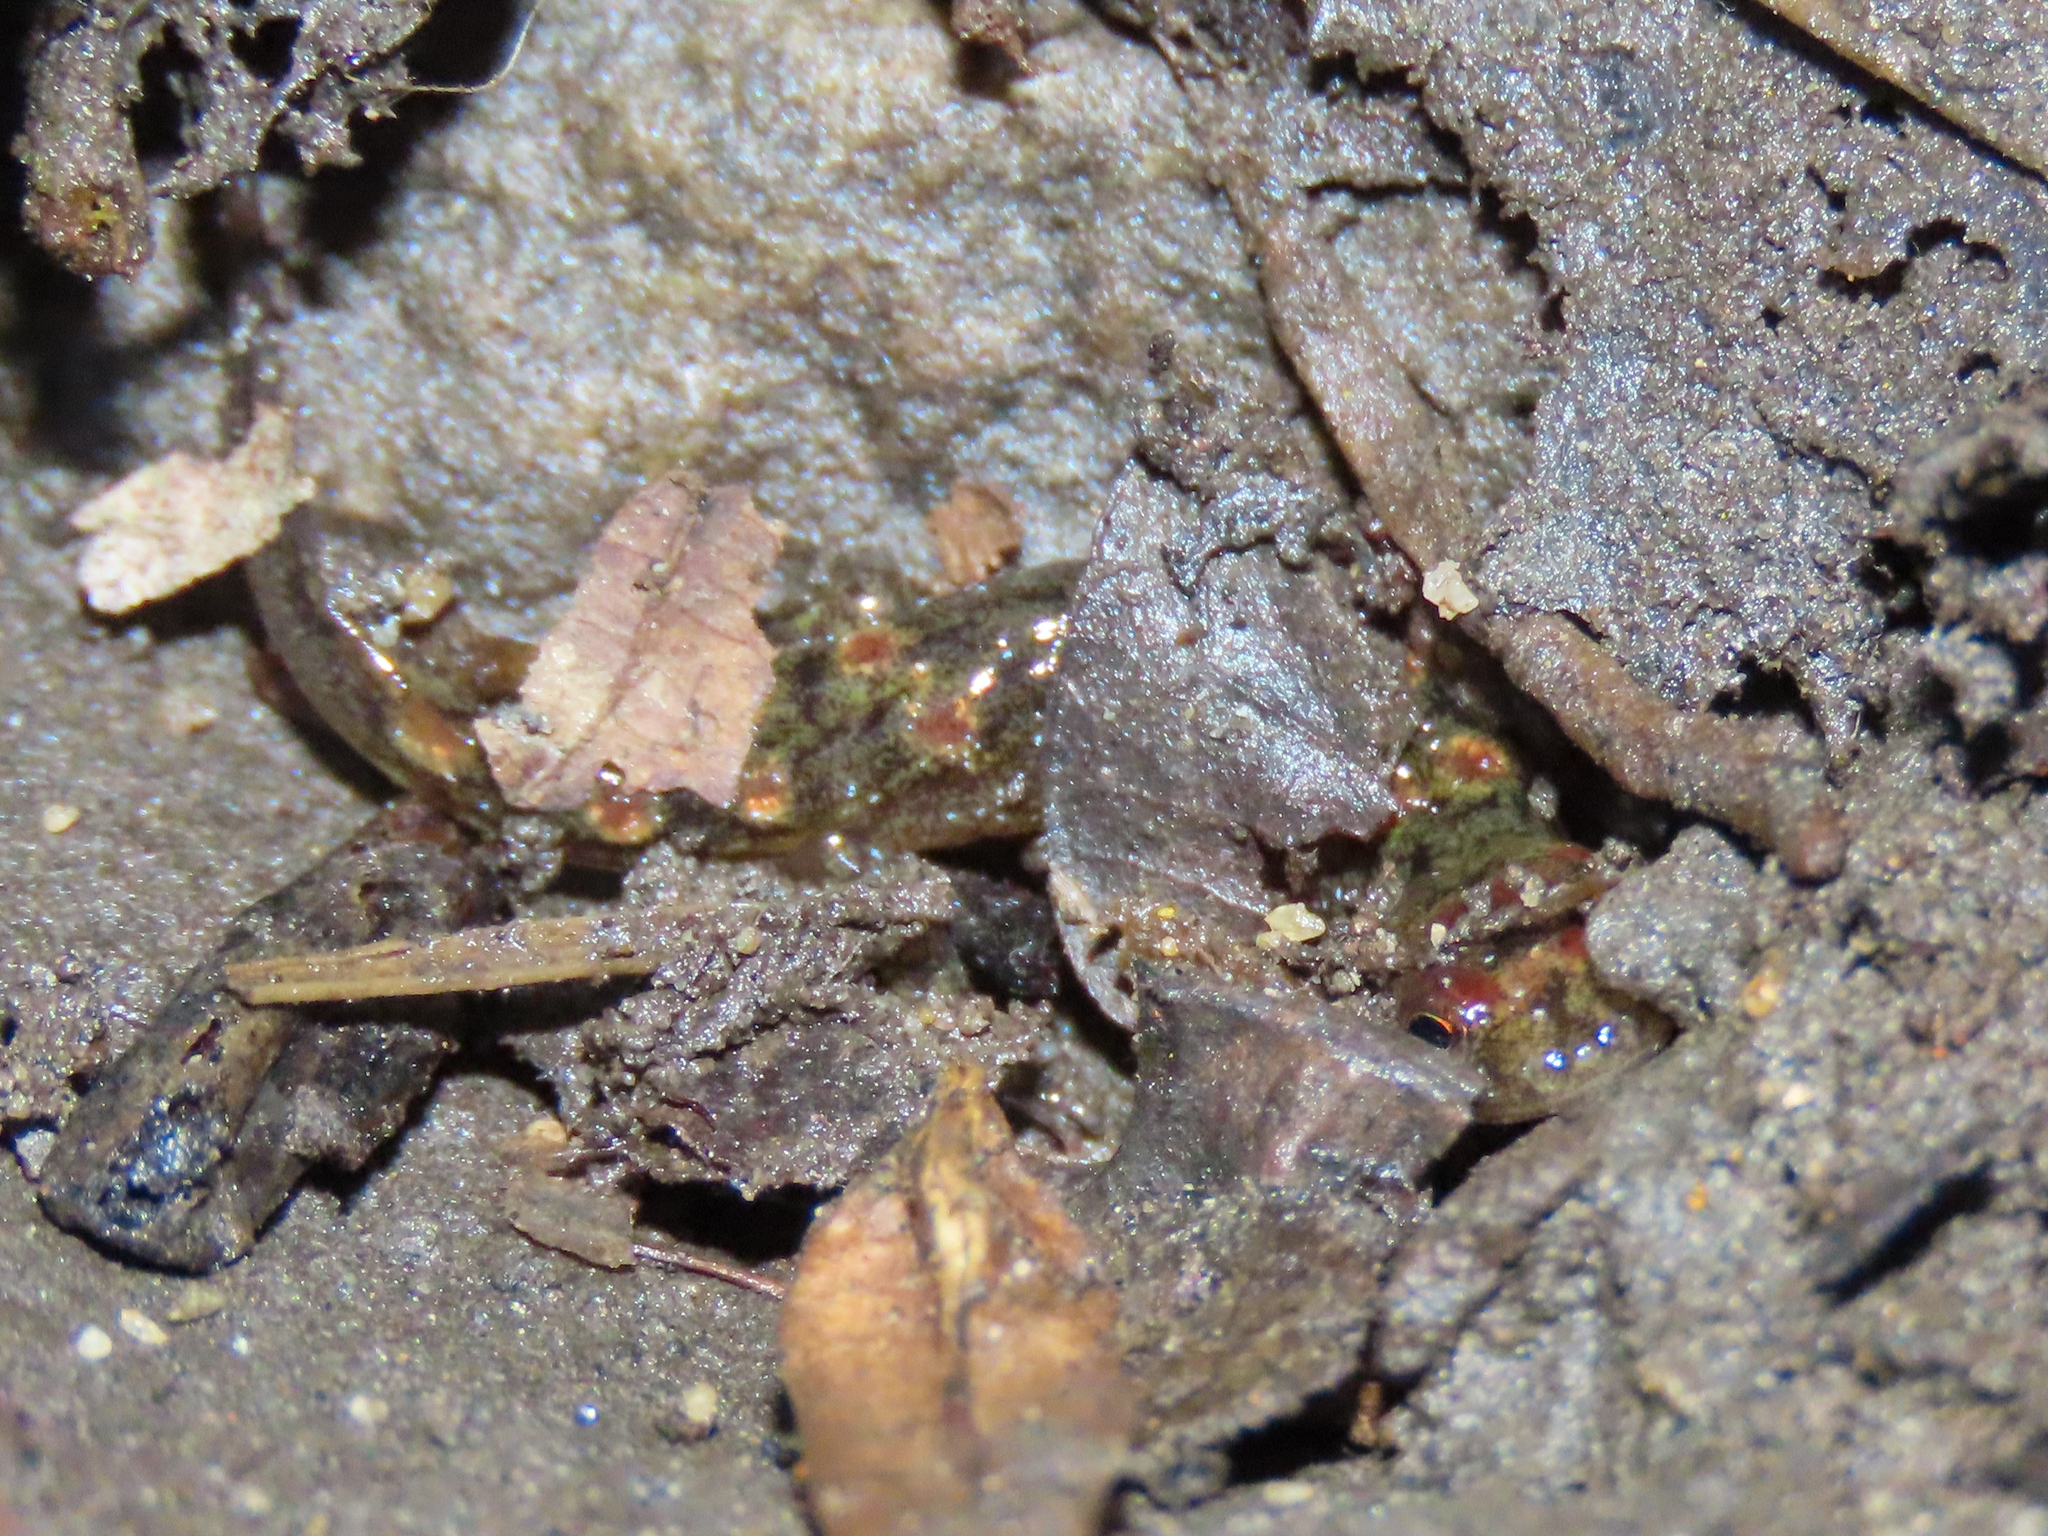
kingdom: Animalia
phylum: Chordata
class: Amphibia
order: Caudata
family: Plethodontidae
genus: Desmognathus
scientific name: Desmognathus monticola
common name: Seal salamander
